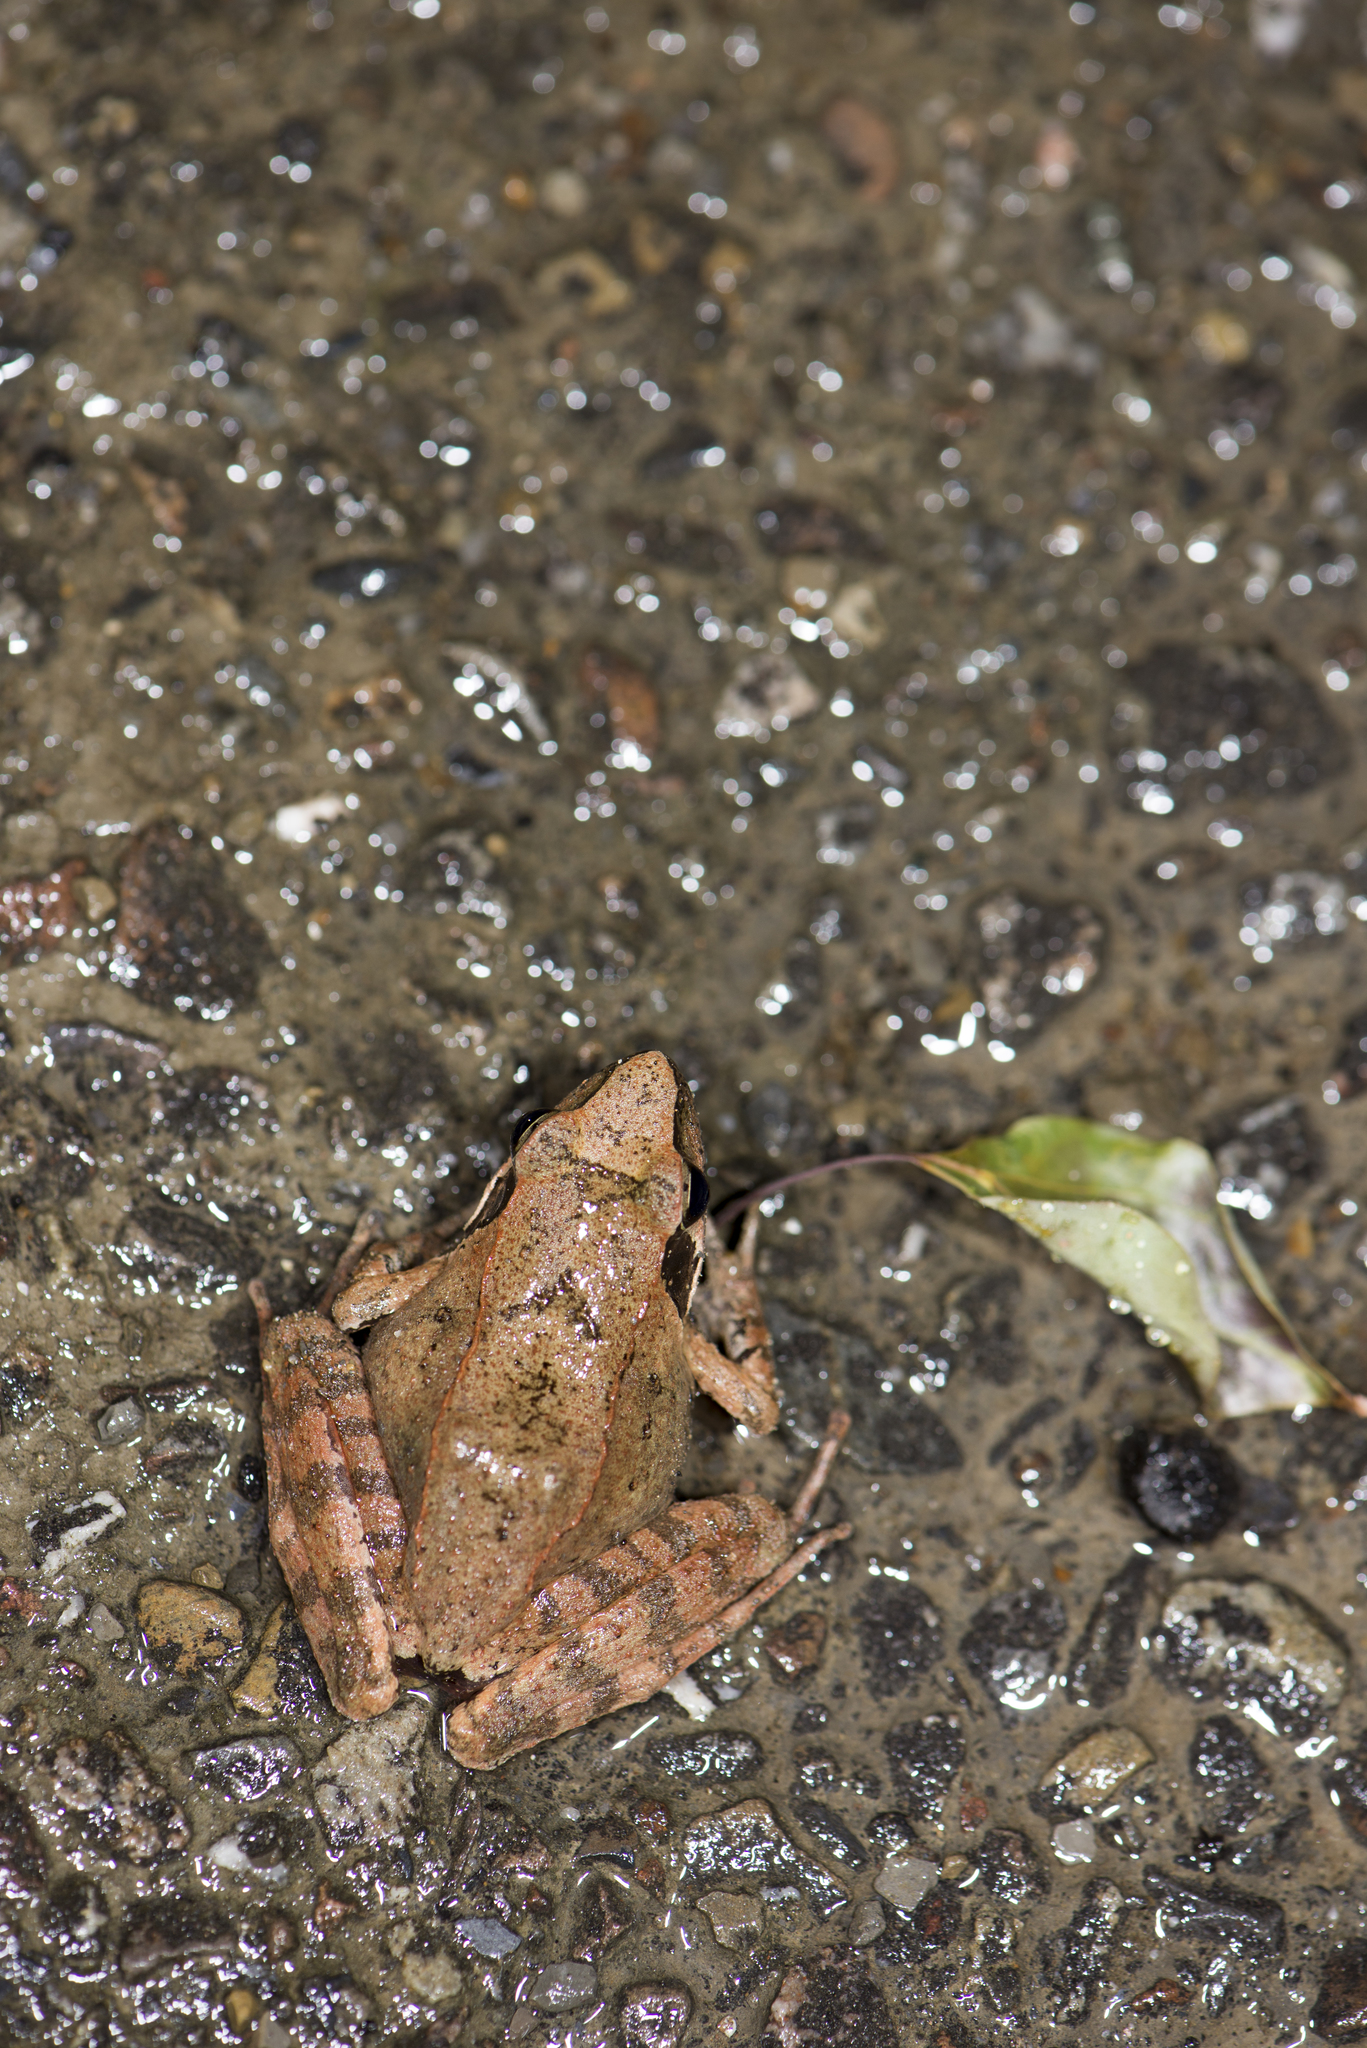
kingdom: Animalia
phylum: Chordata
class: Amphibia
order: Anura
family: Ranidae
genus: Rana
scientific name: Rana longicrus
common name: Long-legged brown frog
